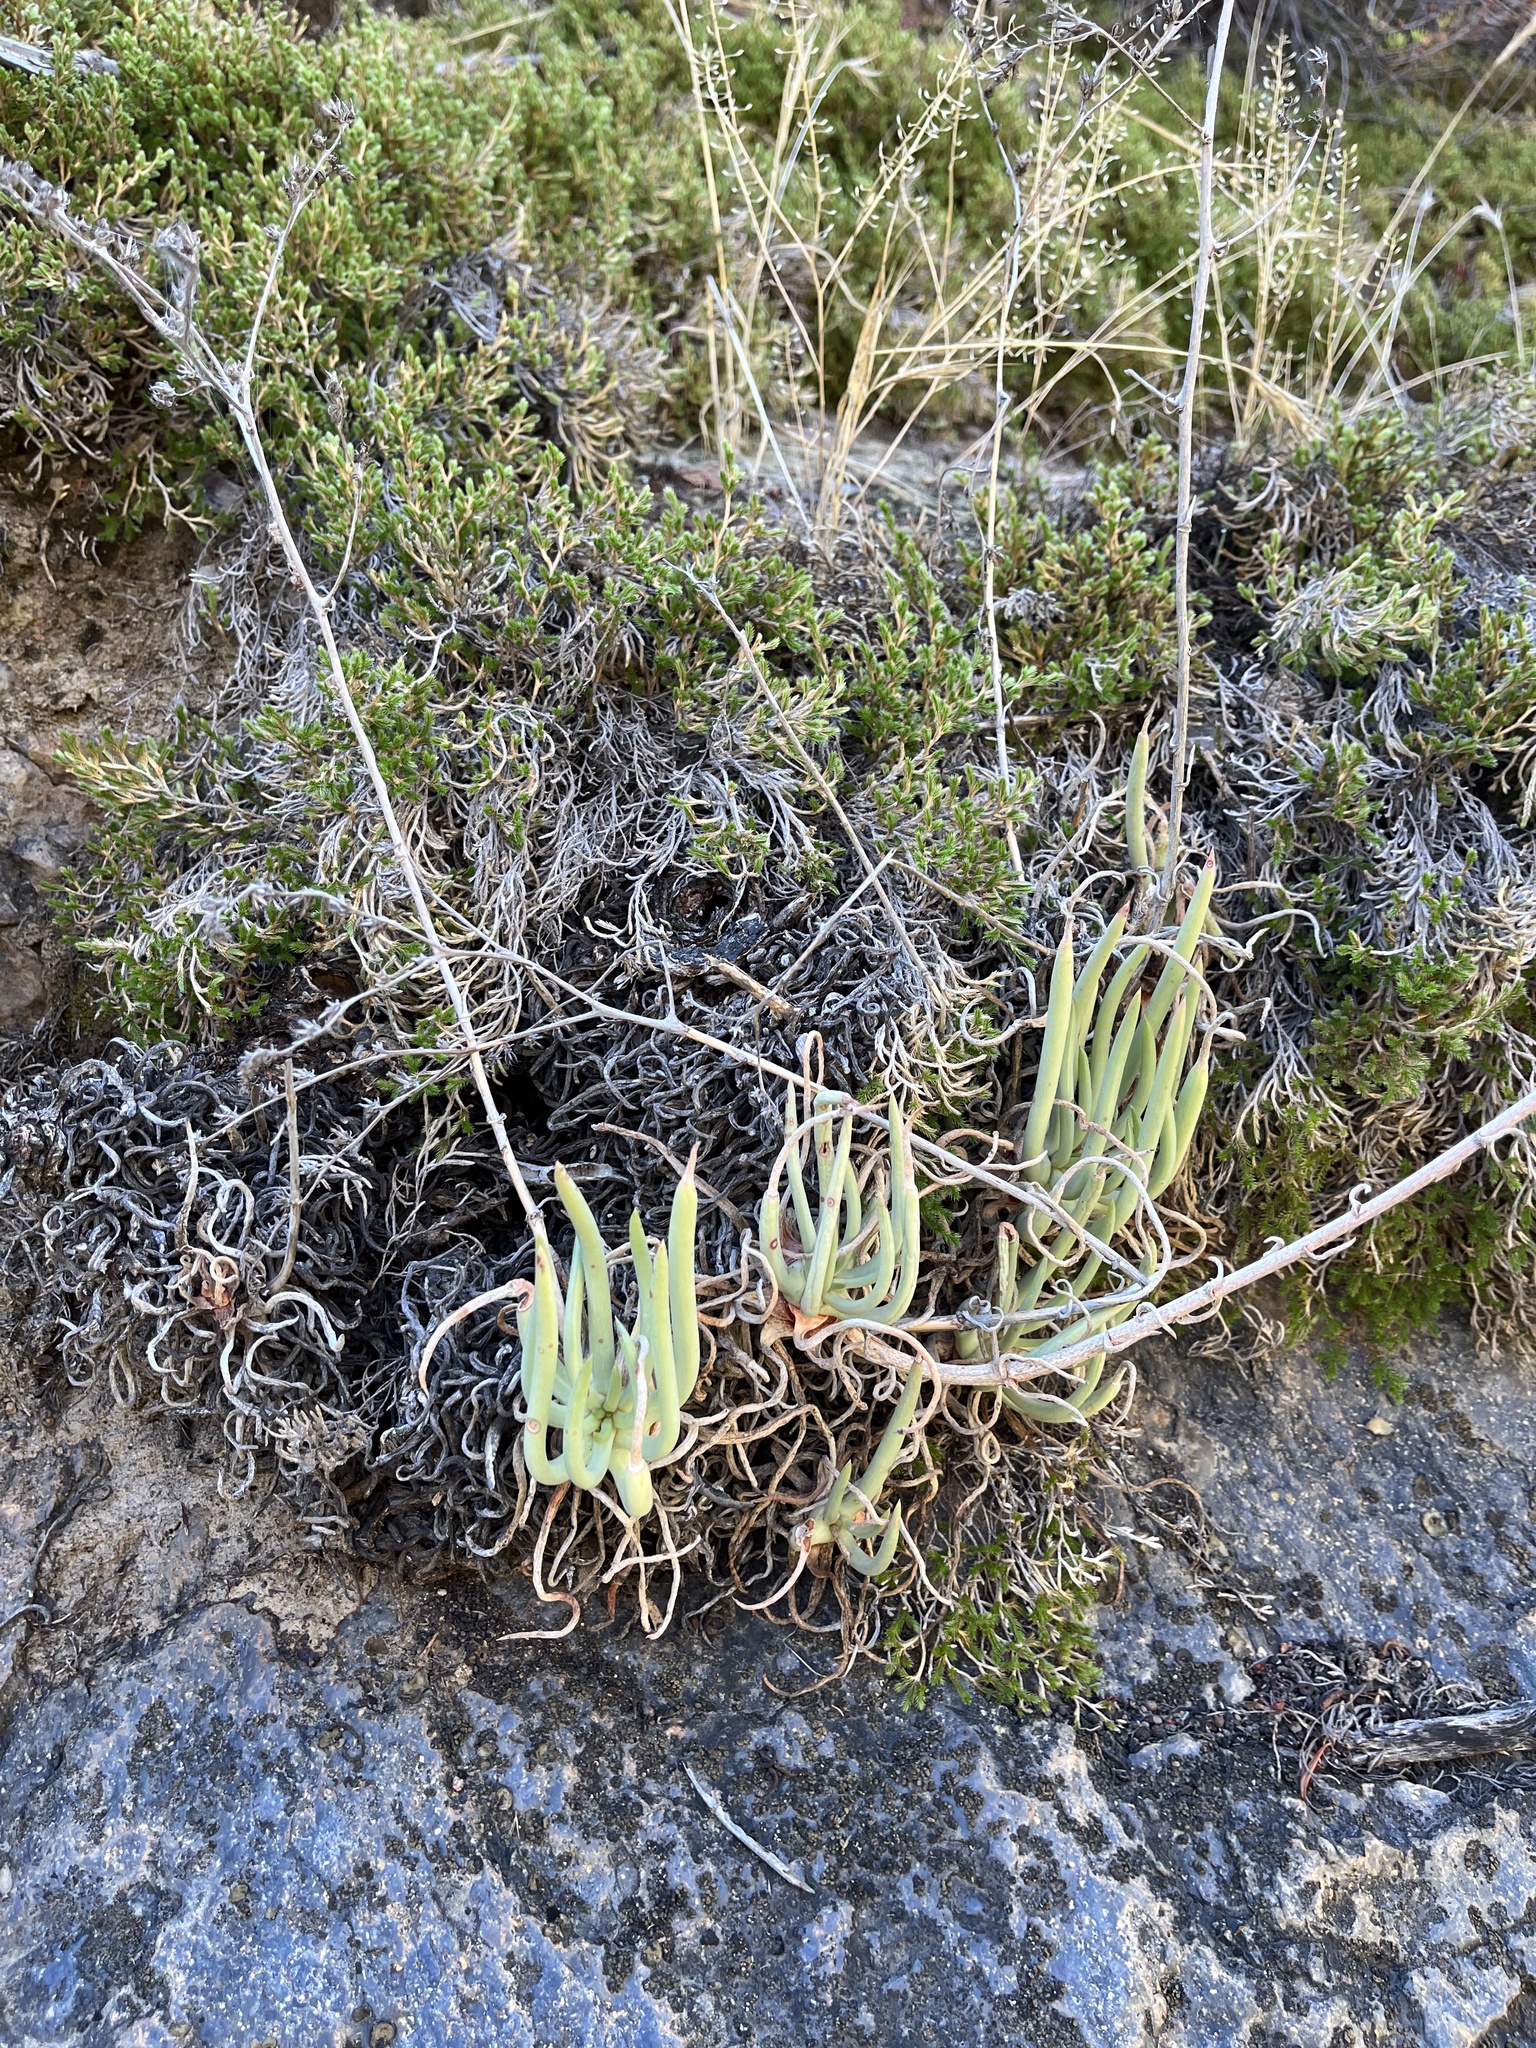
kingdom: Plantae
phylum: Tracheophyta
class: Magnoliopsida
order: Saxifragales
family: Crassulaceae
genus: Dudleya
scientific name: Dudleya edulis
